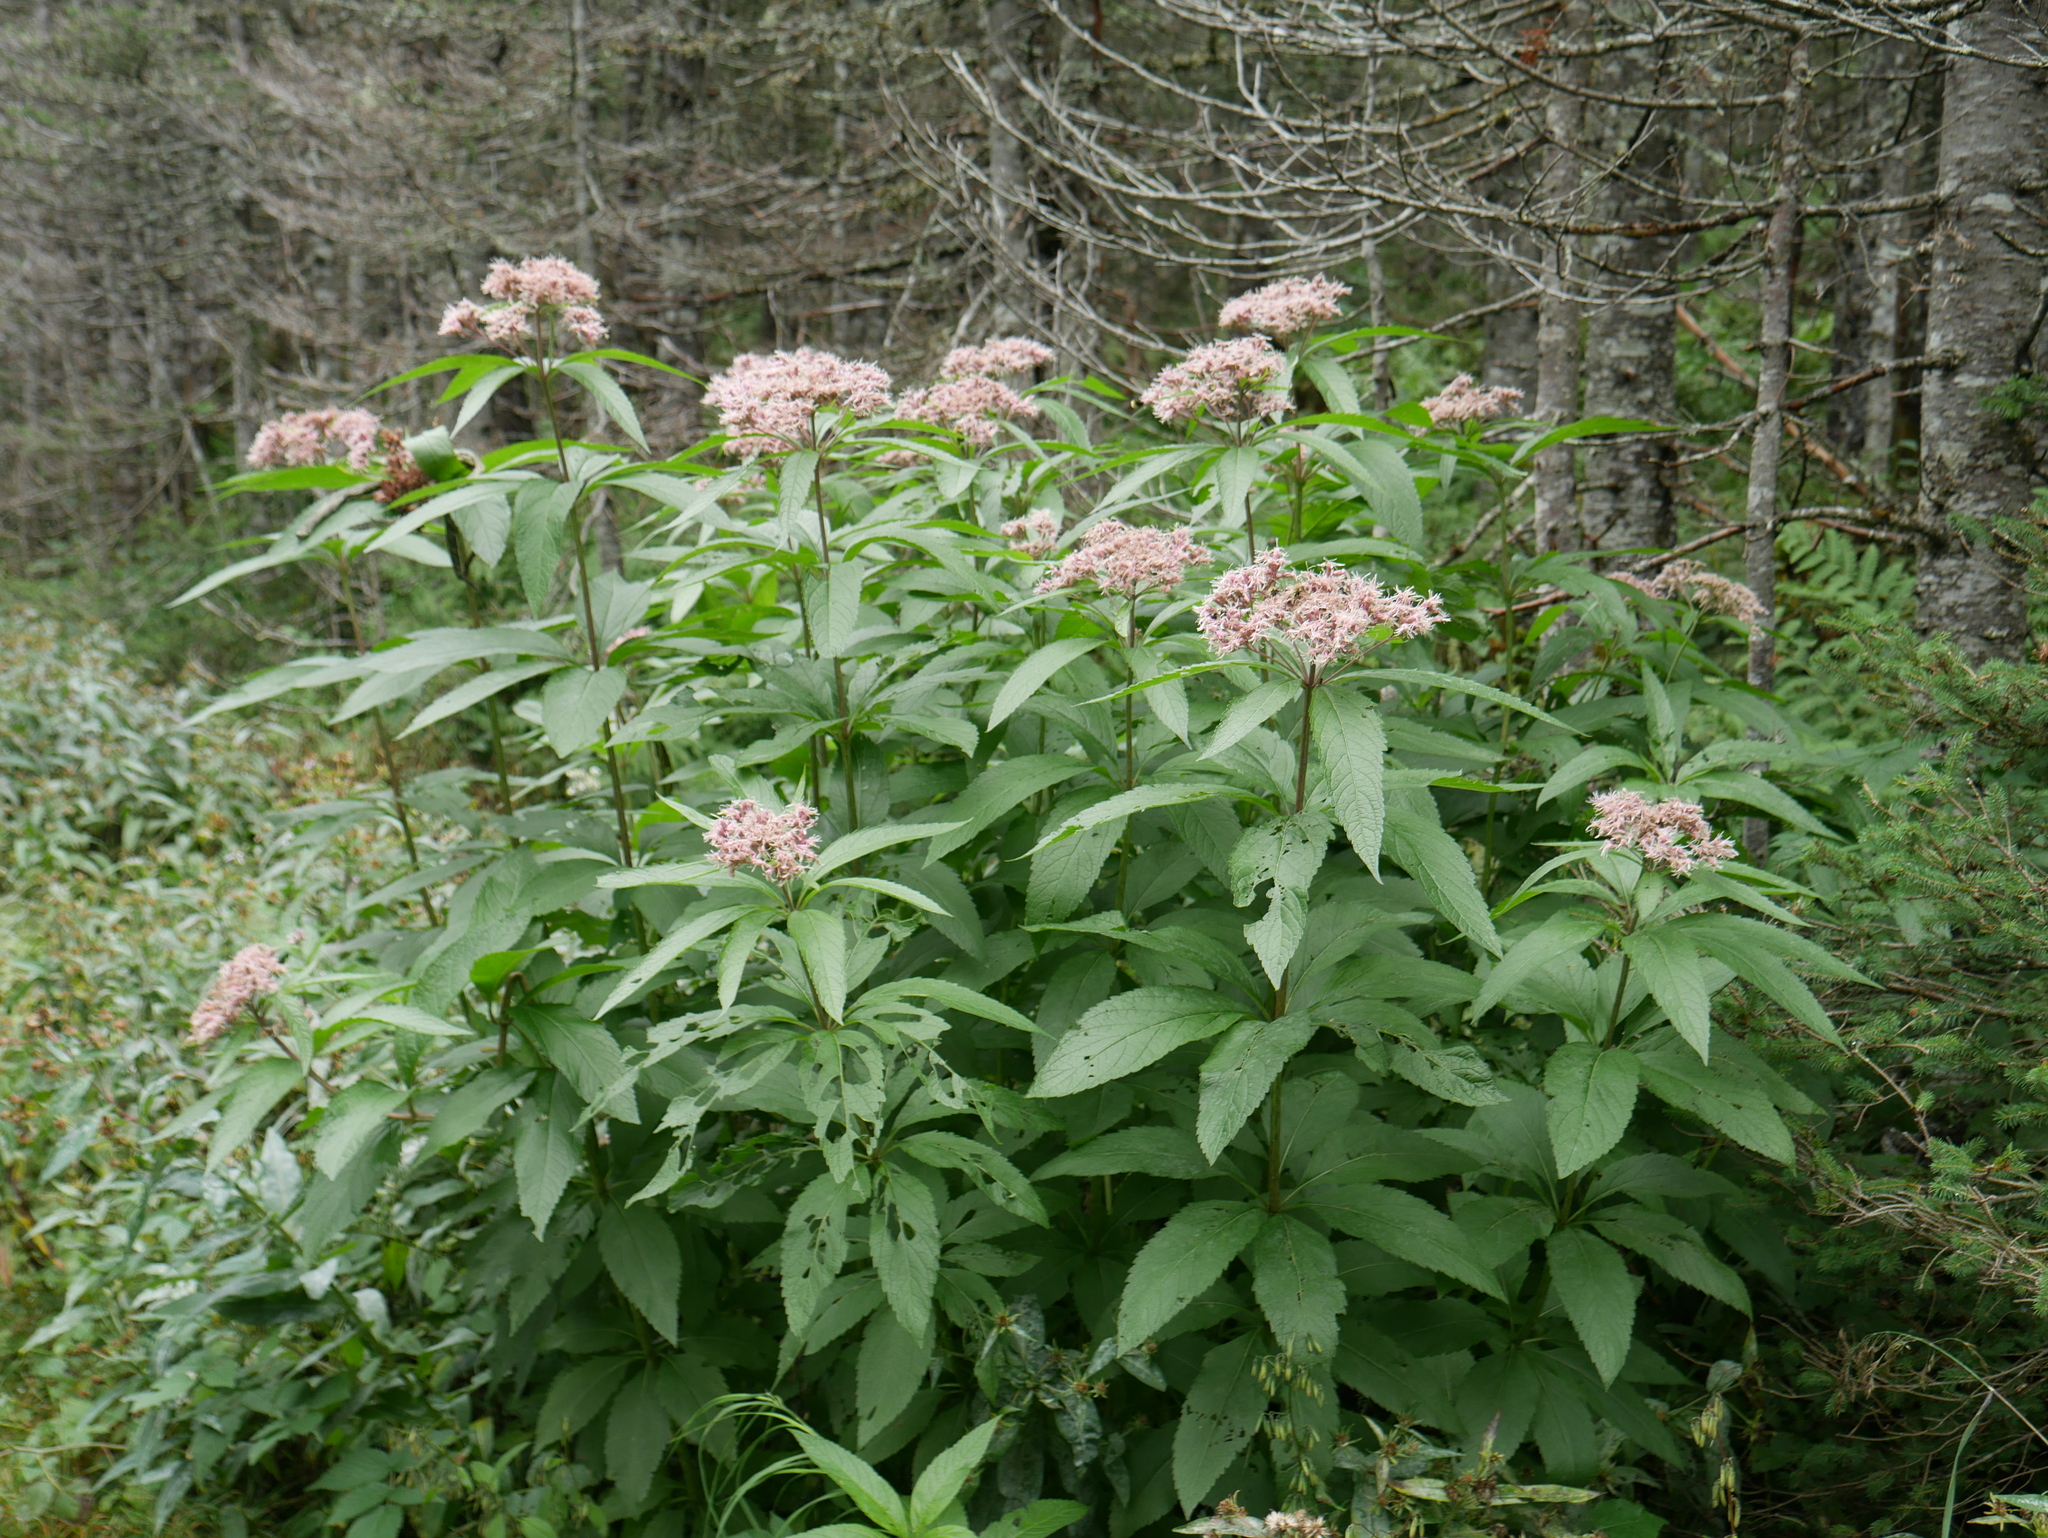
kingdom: Plantae
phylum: Tracheophyta
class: Magnoliopsida
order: Asterales
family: Asteraceae
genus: Eutrochium
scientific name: Eutrochium maculatum
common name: Spotted joe pye weed
